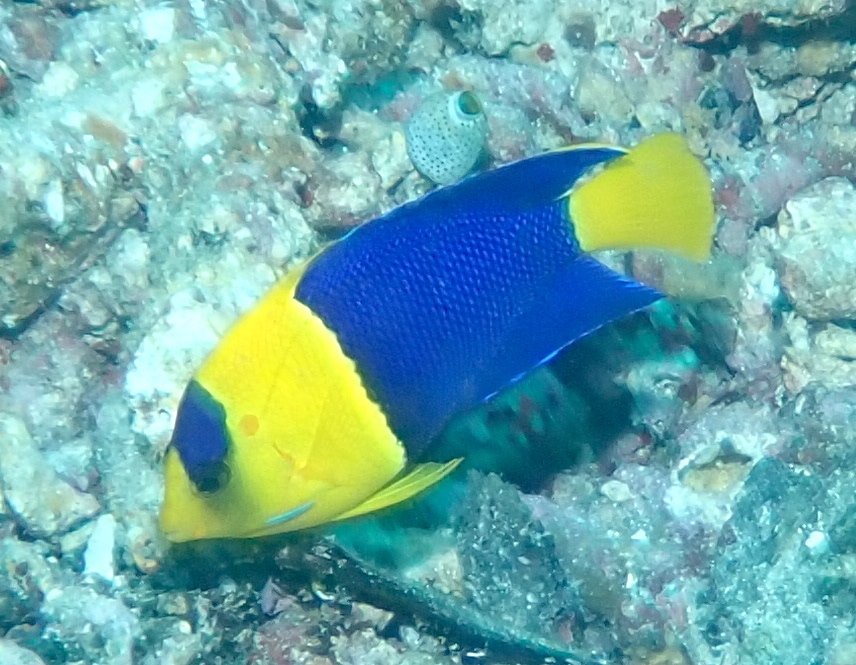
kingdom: Animalia
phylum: Chordata
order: Perciformes
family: Pomacanthidae
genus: Centropyge
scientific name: Centropyge bicolor
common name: Bicolor angelfish
